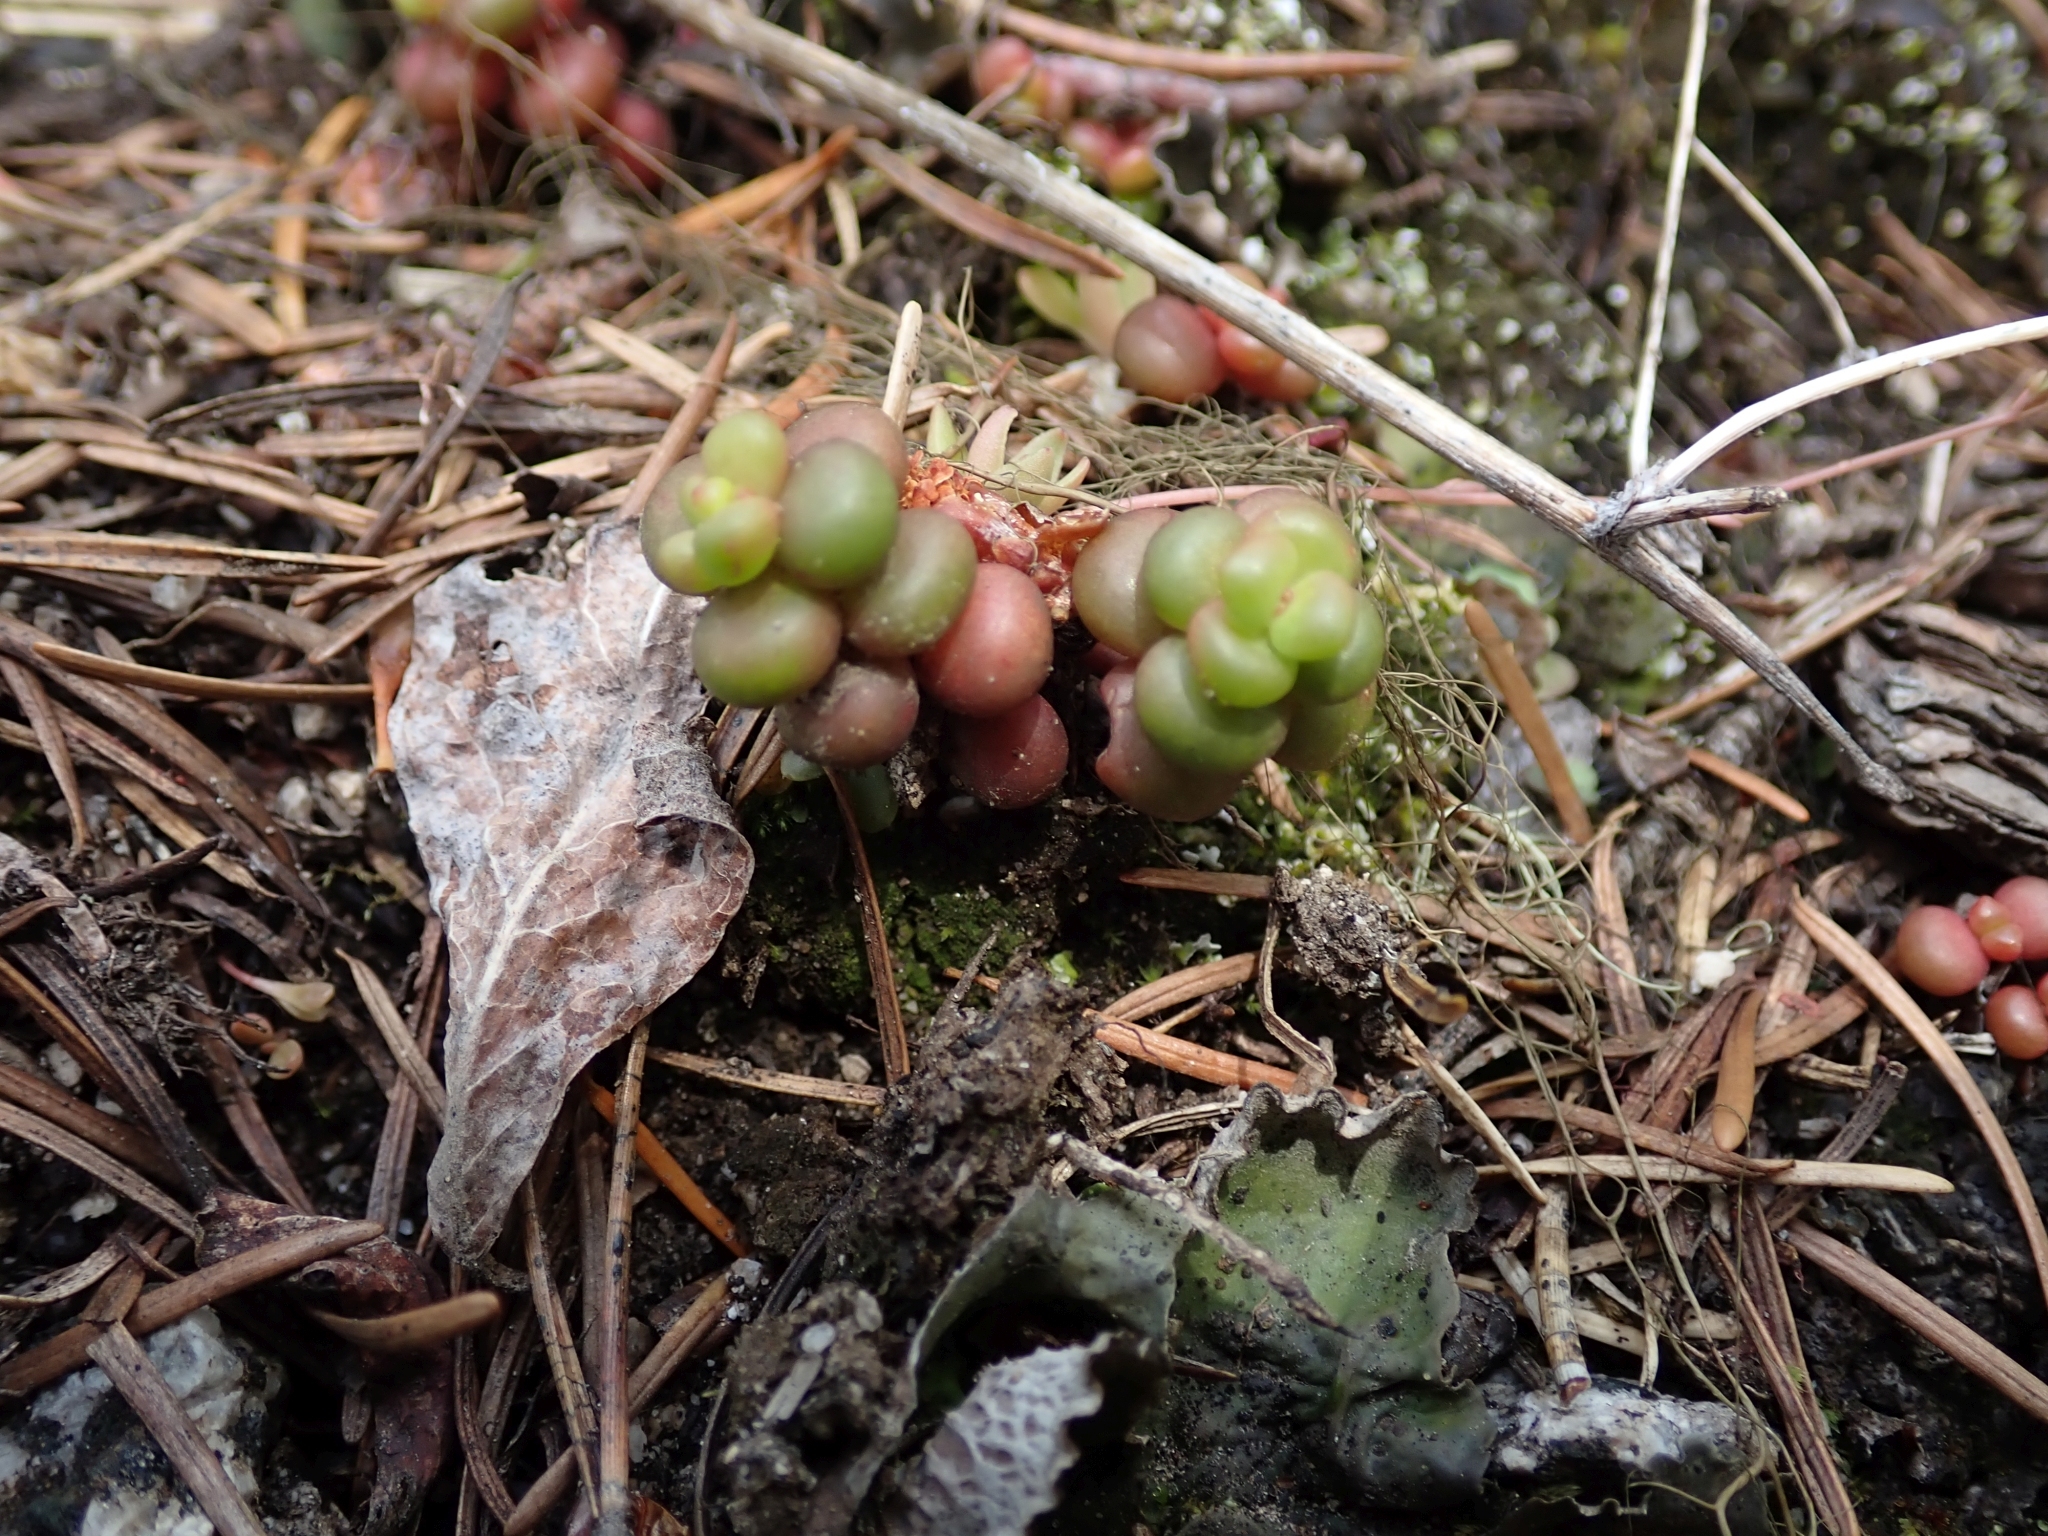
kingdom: Plantae
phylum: Tracheophyta
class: Magnoliopsida
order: Saxifragales
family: Crassulaceae
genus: Sedum
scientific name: Sedum divergens
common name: Cascade stonecrop
